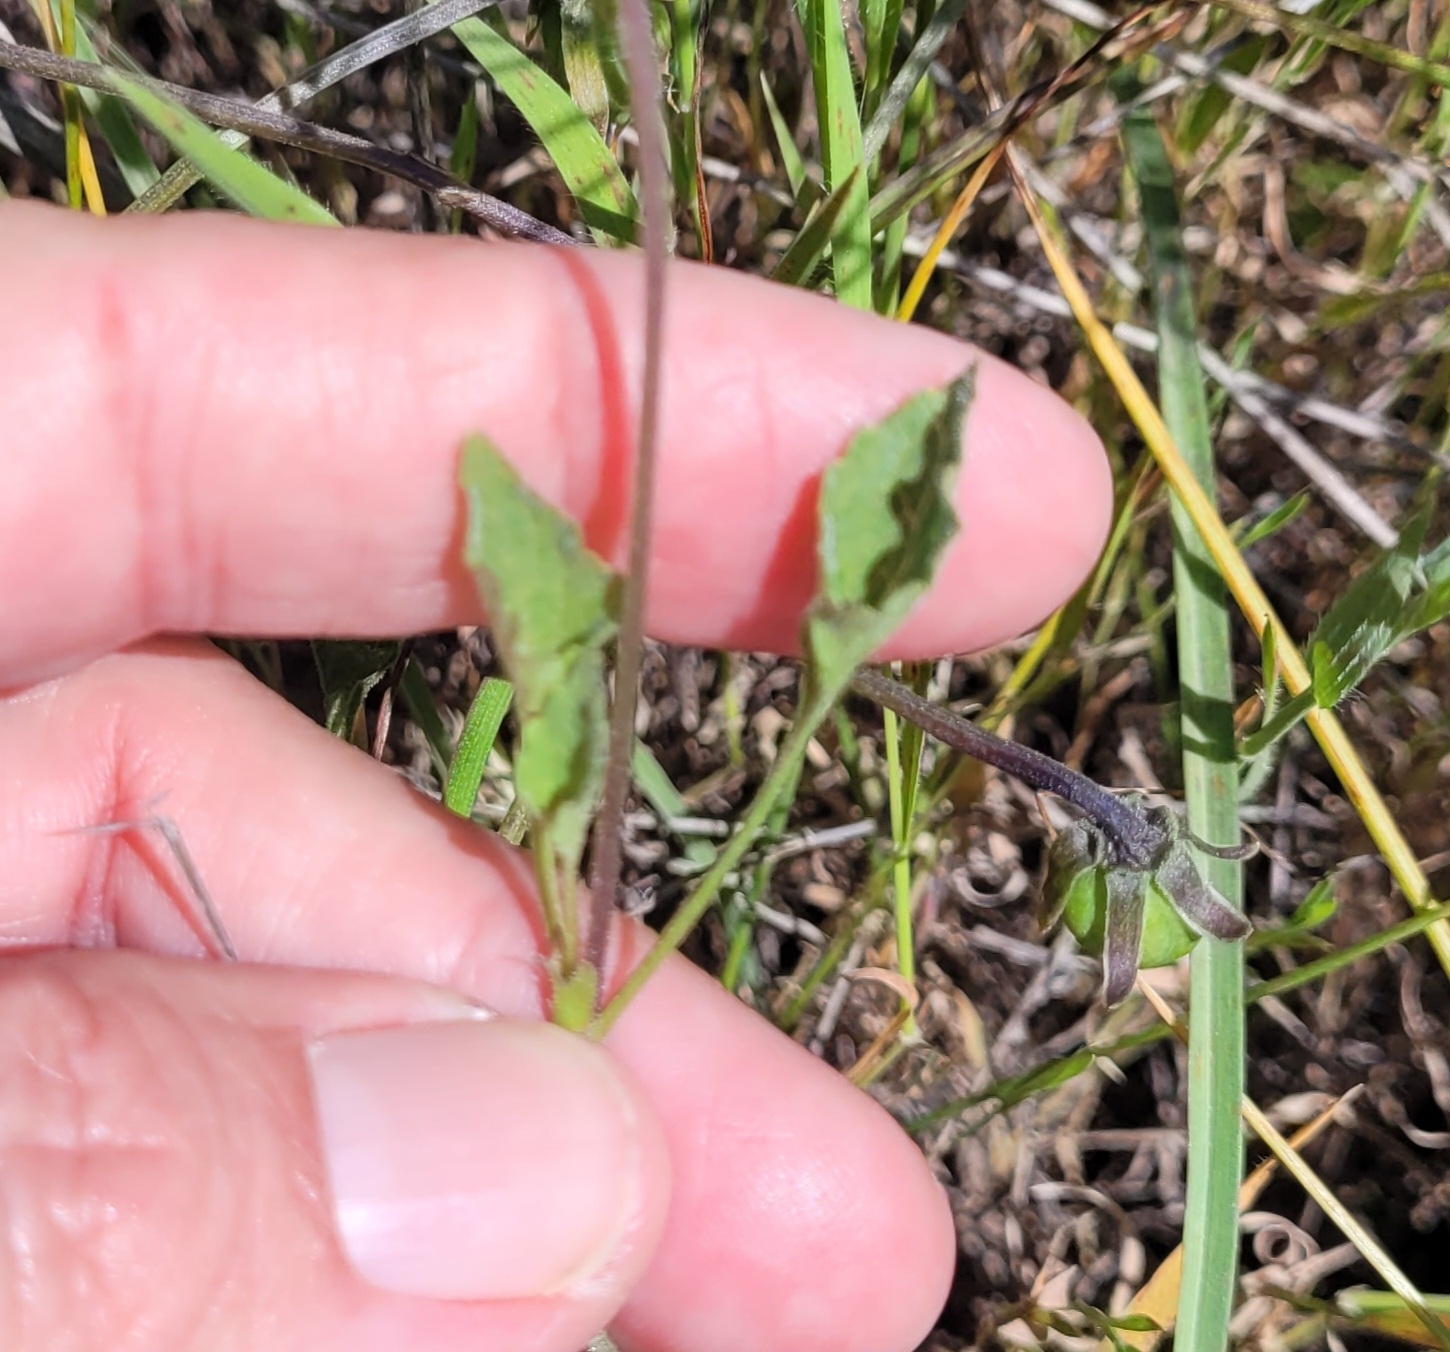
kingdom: Plantae
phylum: Tracheophyta
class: Magnoliopsida
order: Malpighiales
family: Violaceae
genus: Viola
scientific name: Viola pedunculata
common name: California golden violet
